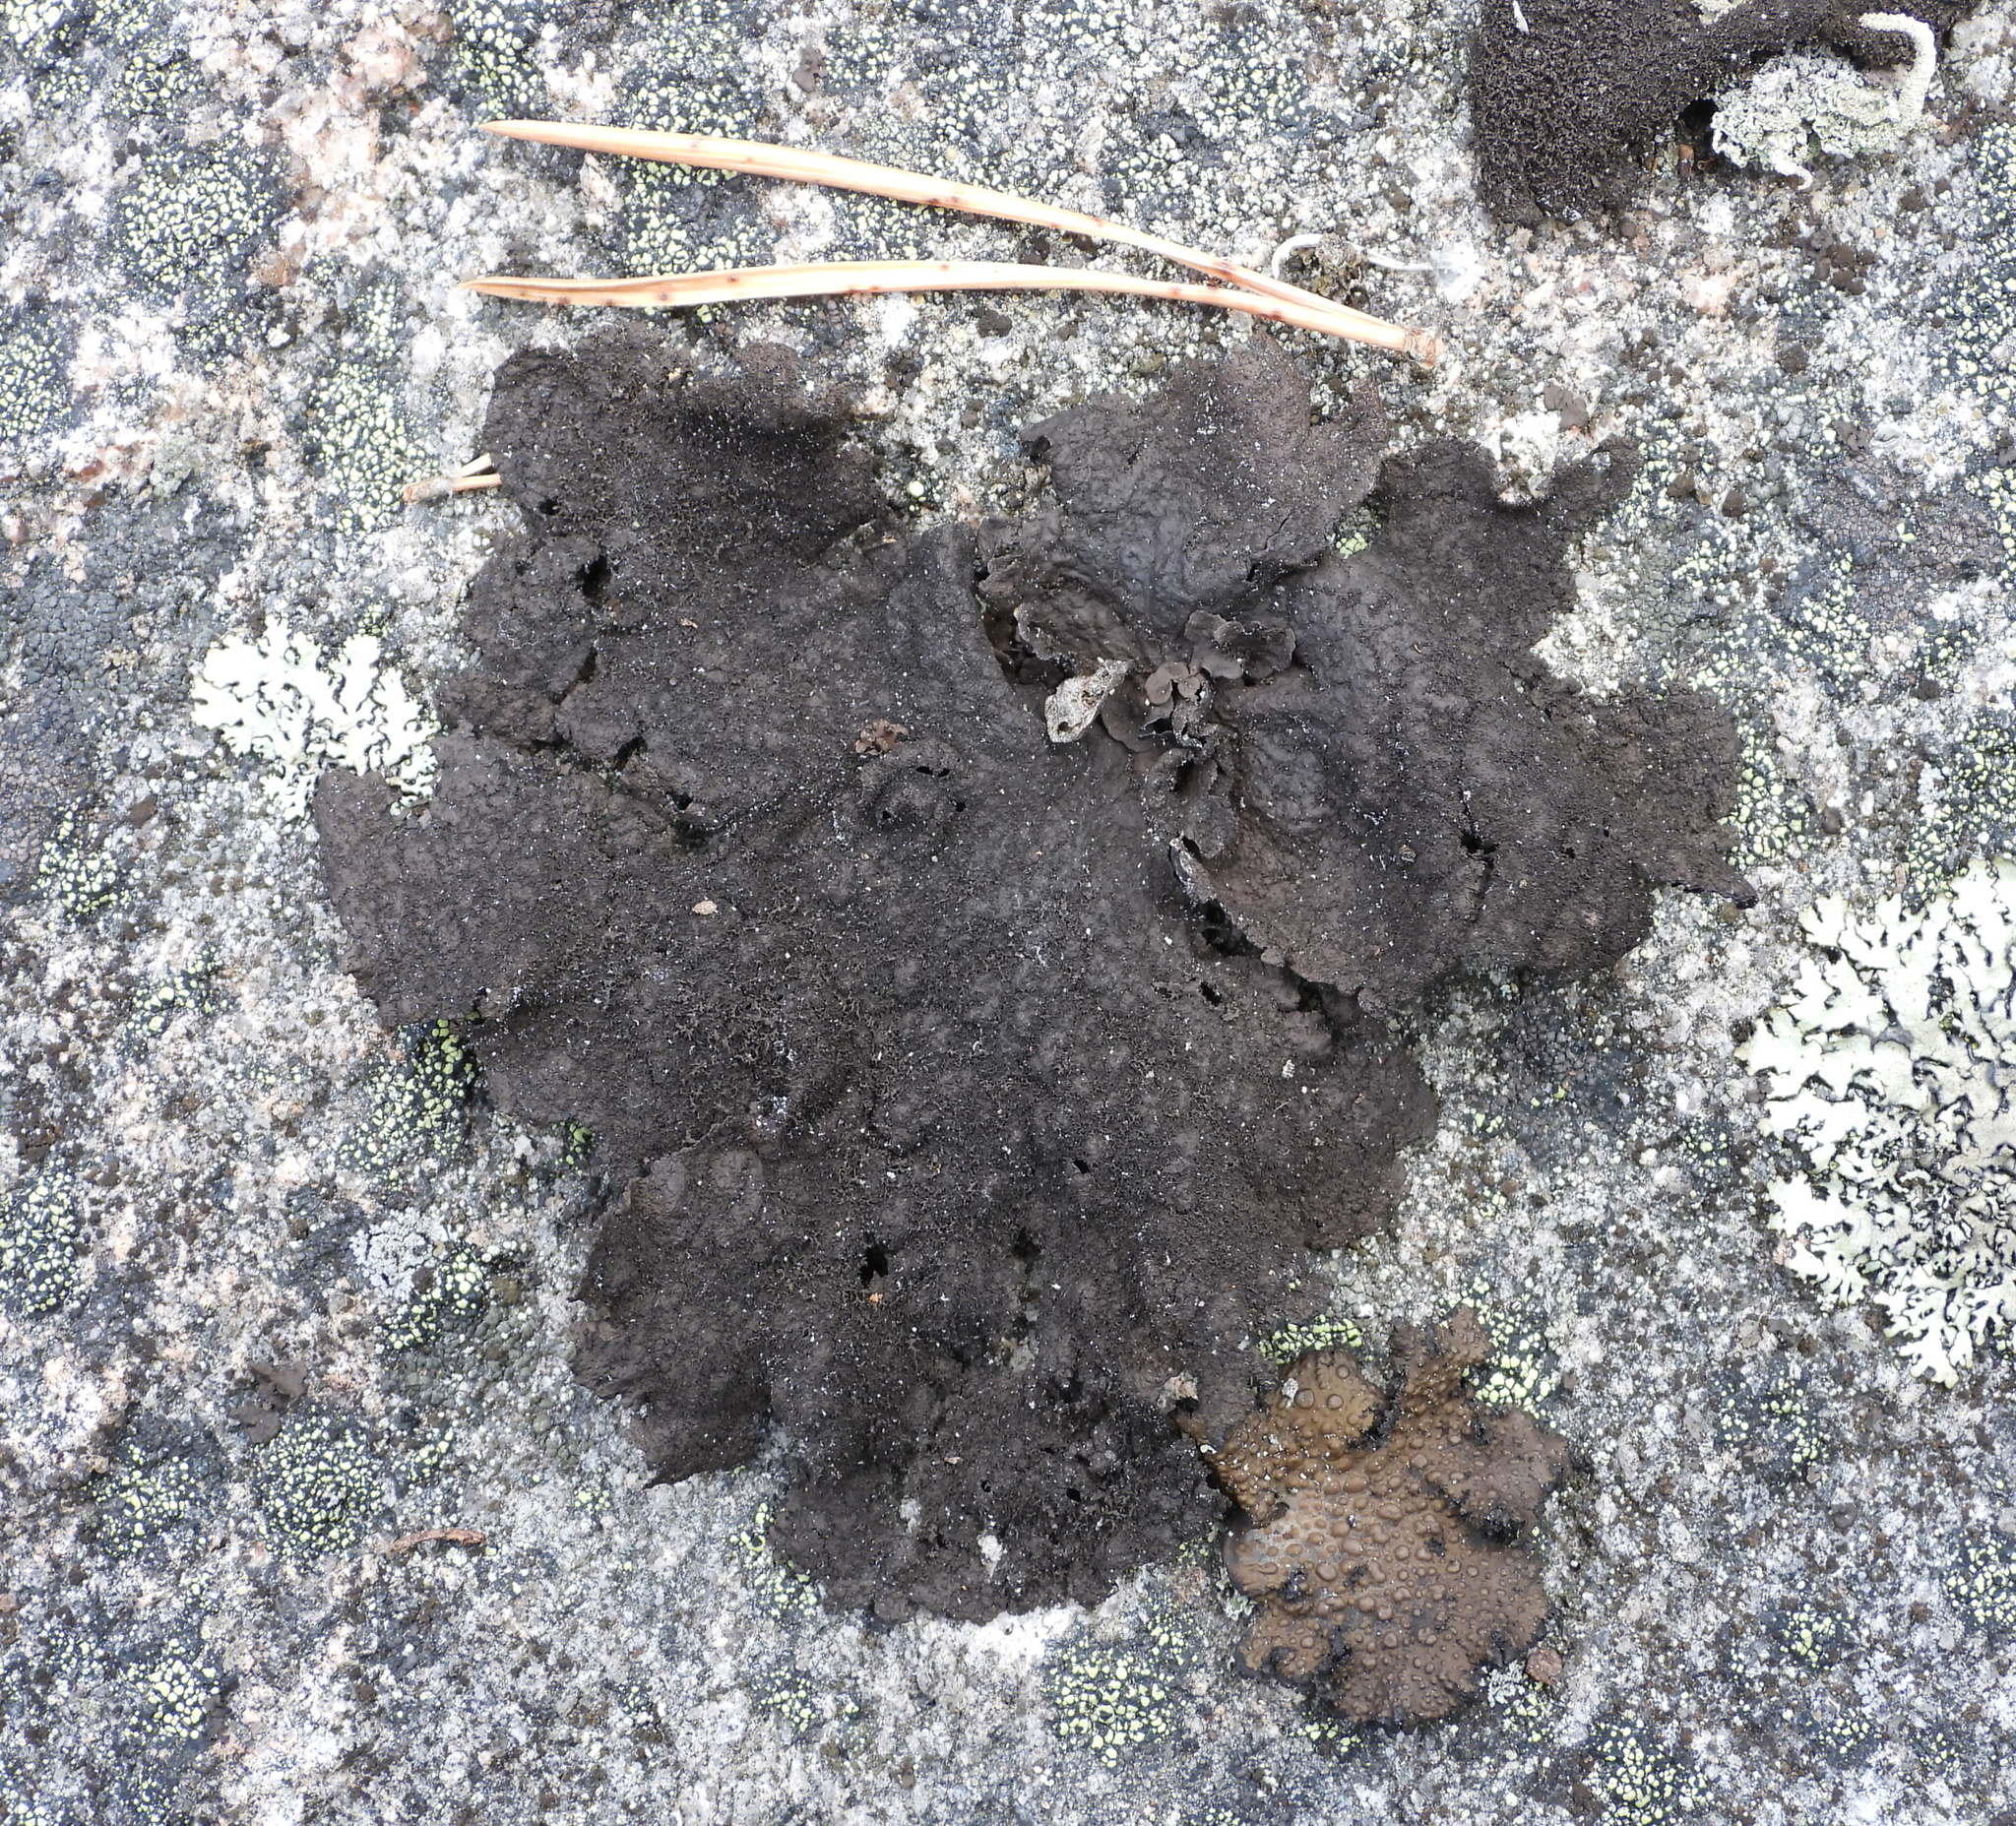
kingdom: Fungi
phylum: Ascomycota
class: Lecanoromycetes
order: Umbilicariales
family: Umbilicariaceae
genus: Umbilicaria
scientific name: Umbilicaria deusta
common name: Peppered rock tripe
